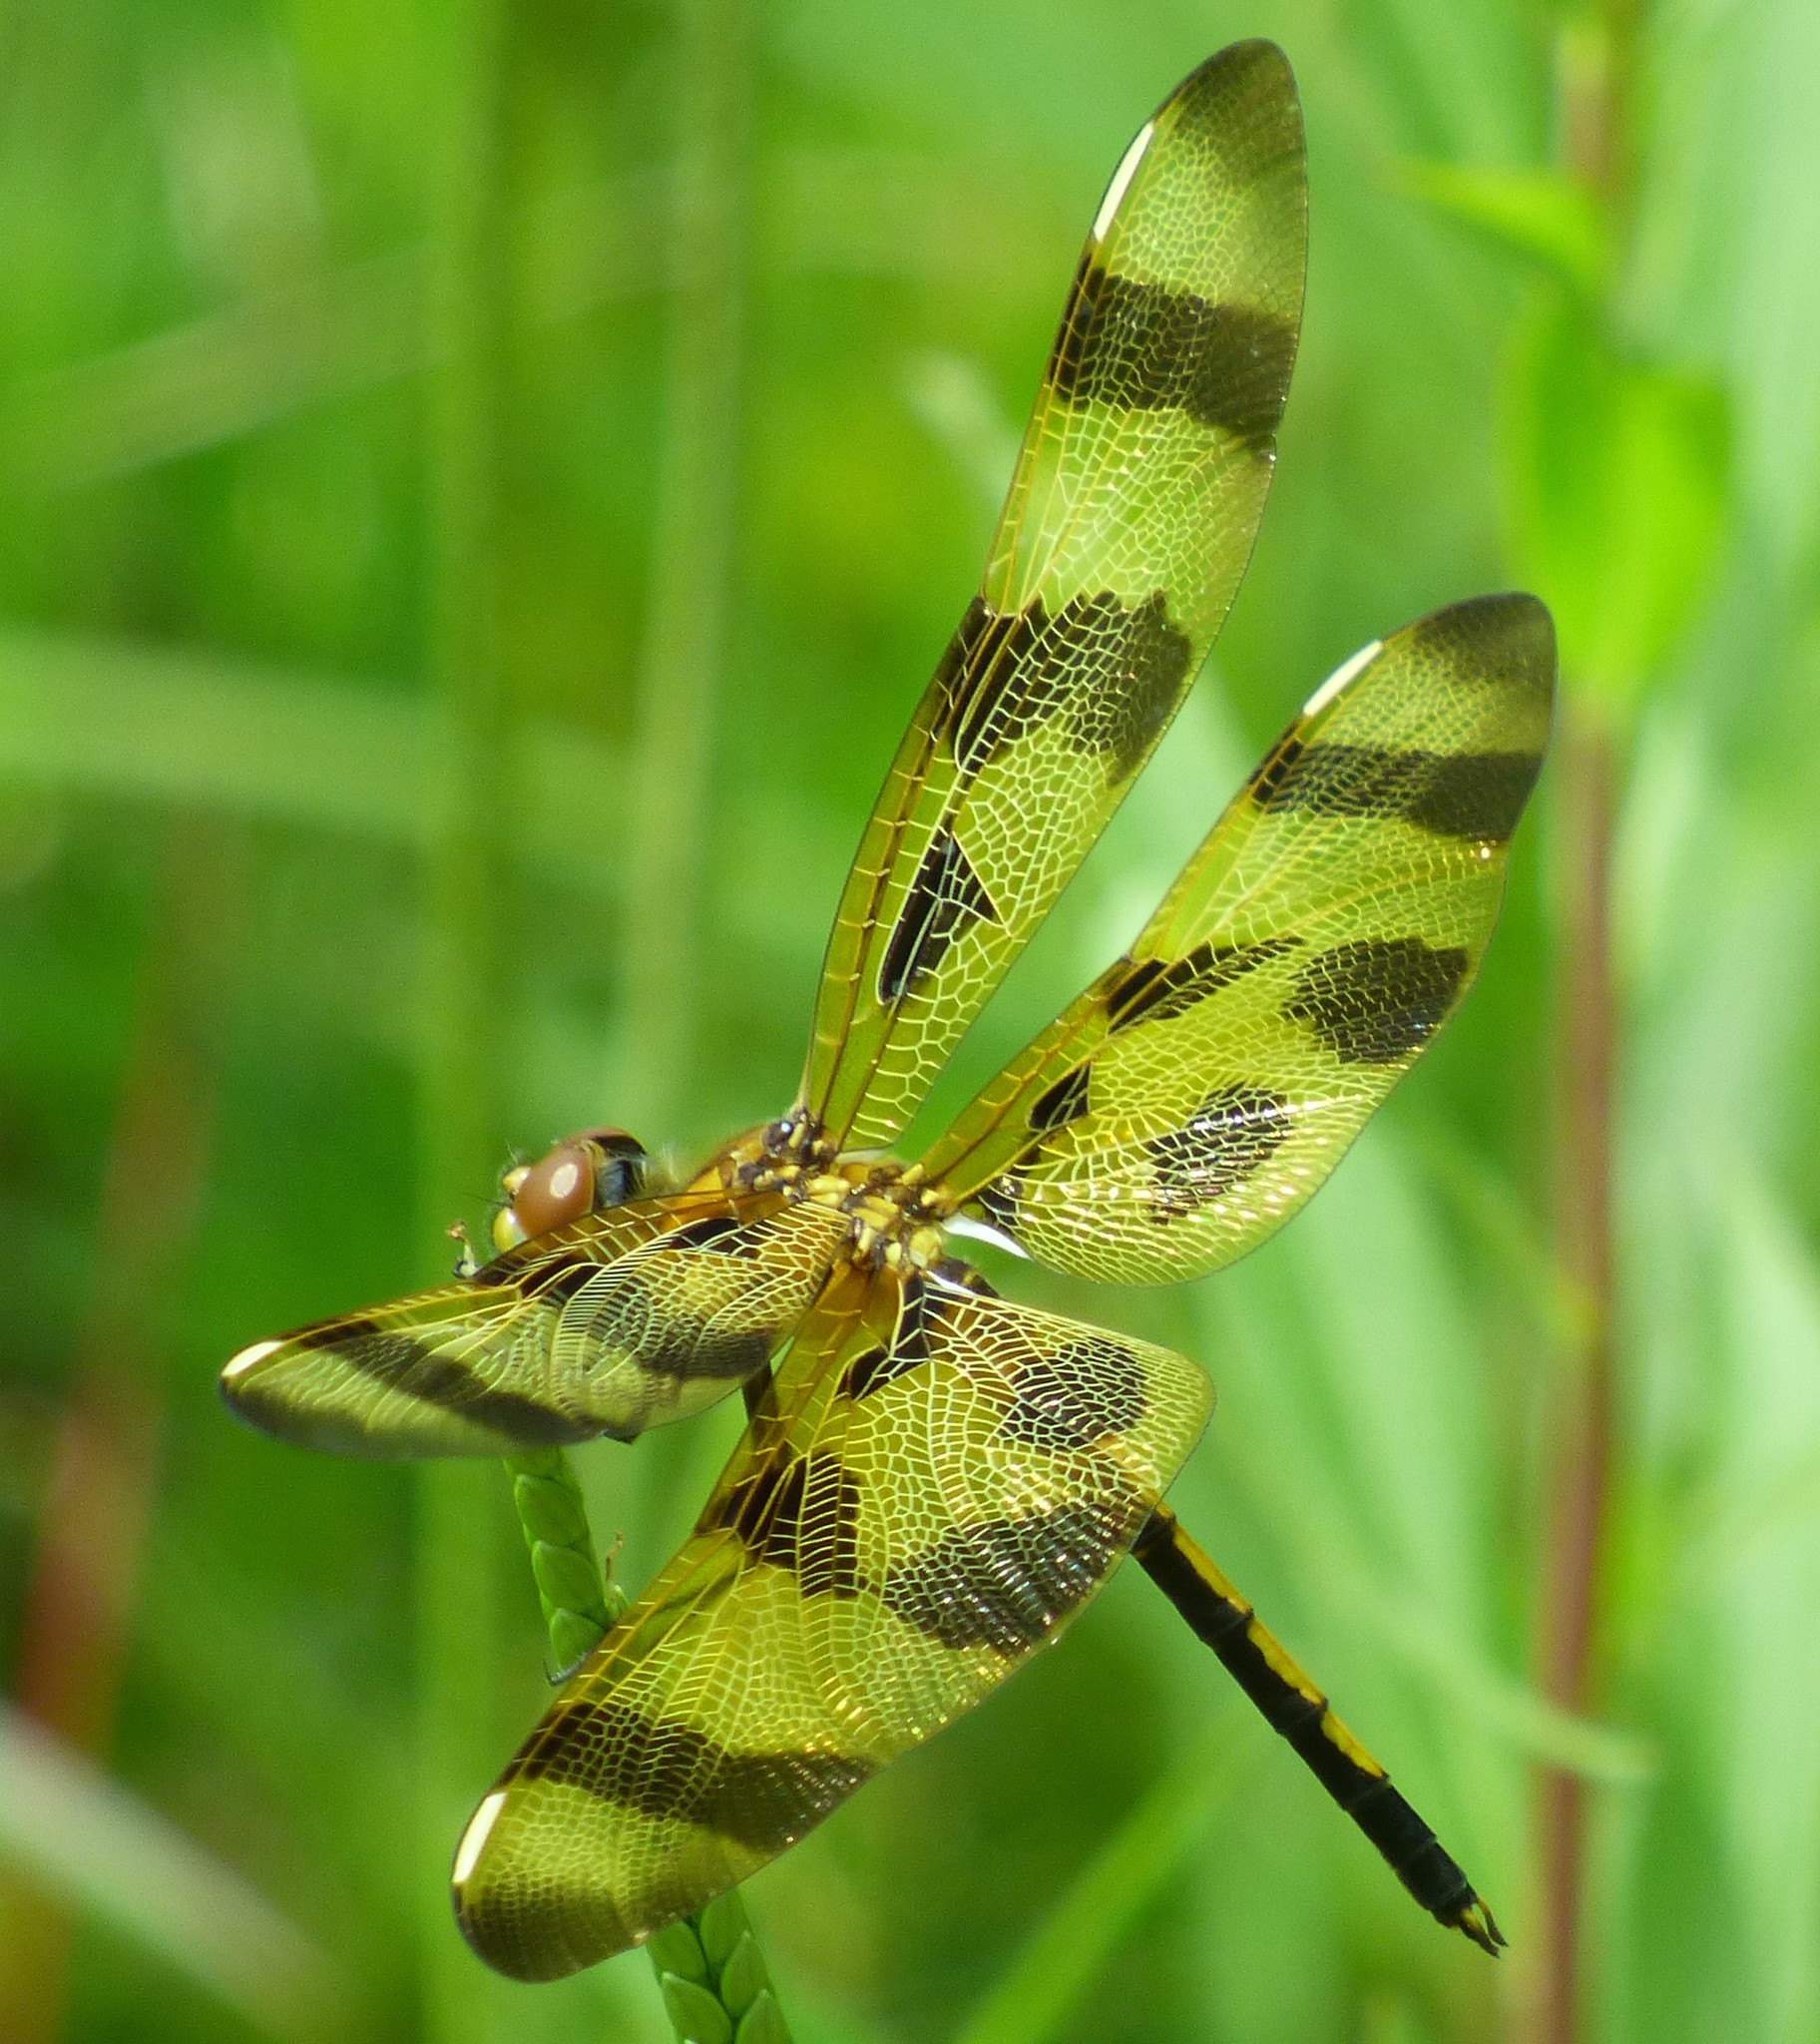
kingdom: Animalia
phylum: Arthropoda
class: Insecta
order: Odonata
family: Libellulidae
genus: Celithemis
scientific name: Celithemis eponina
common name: Halloween pennant
